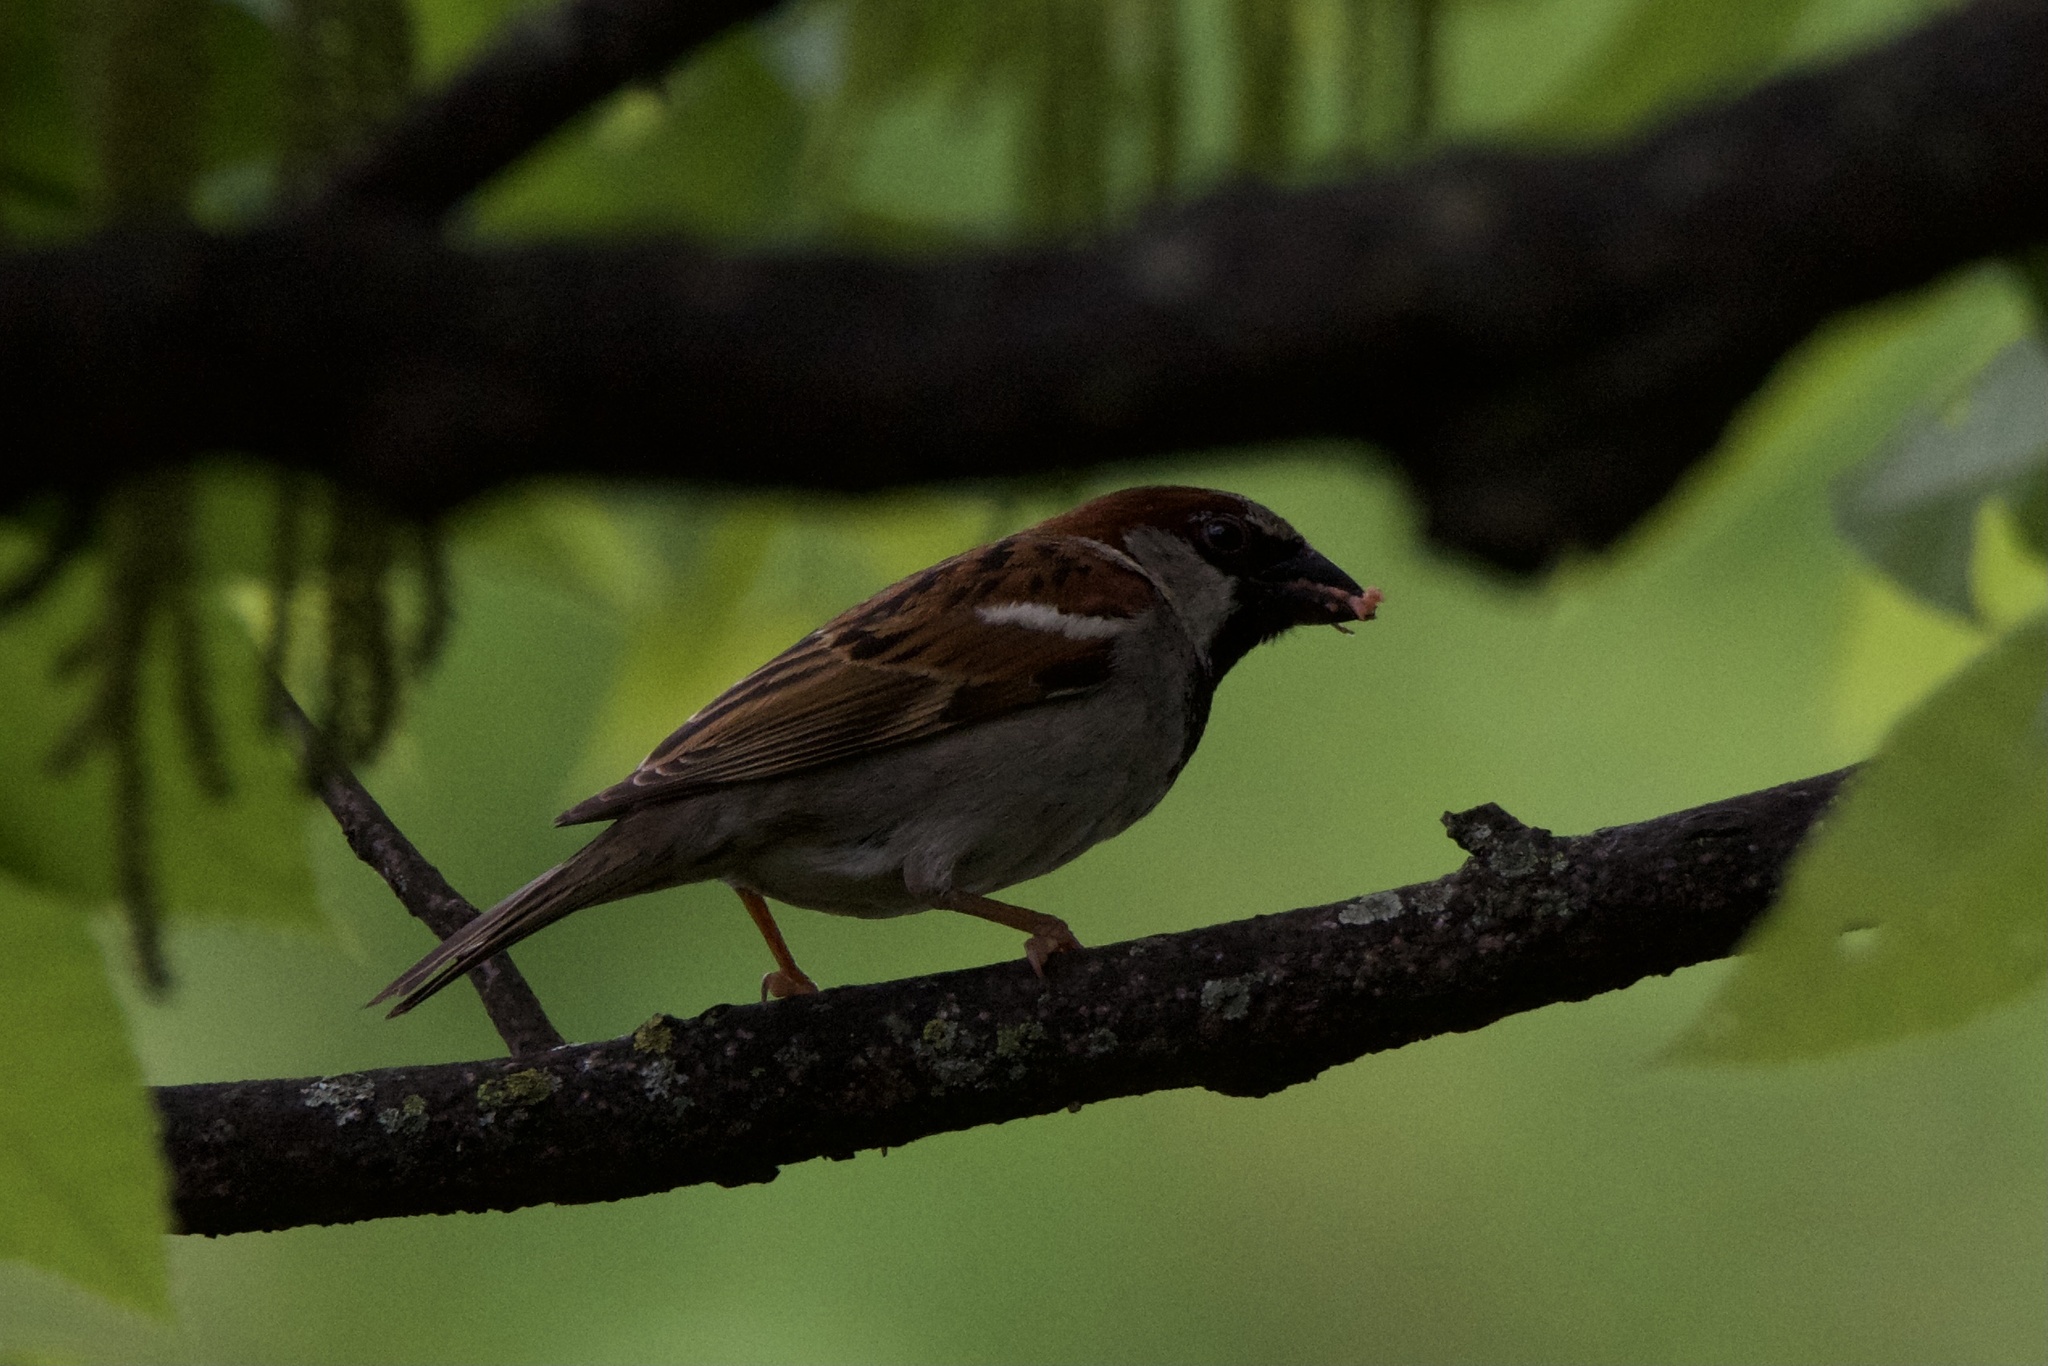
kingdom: Animalia
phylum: Chordata
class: Aves
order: Passeriformes
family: Passeridae
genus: Passer
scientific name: Passer domesticus
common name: House sparrow
